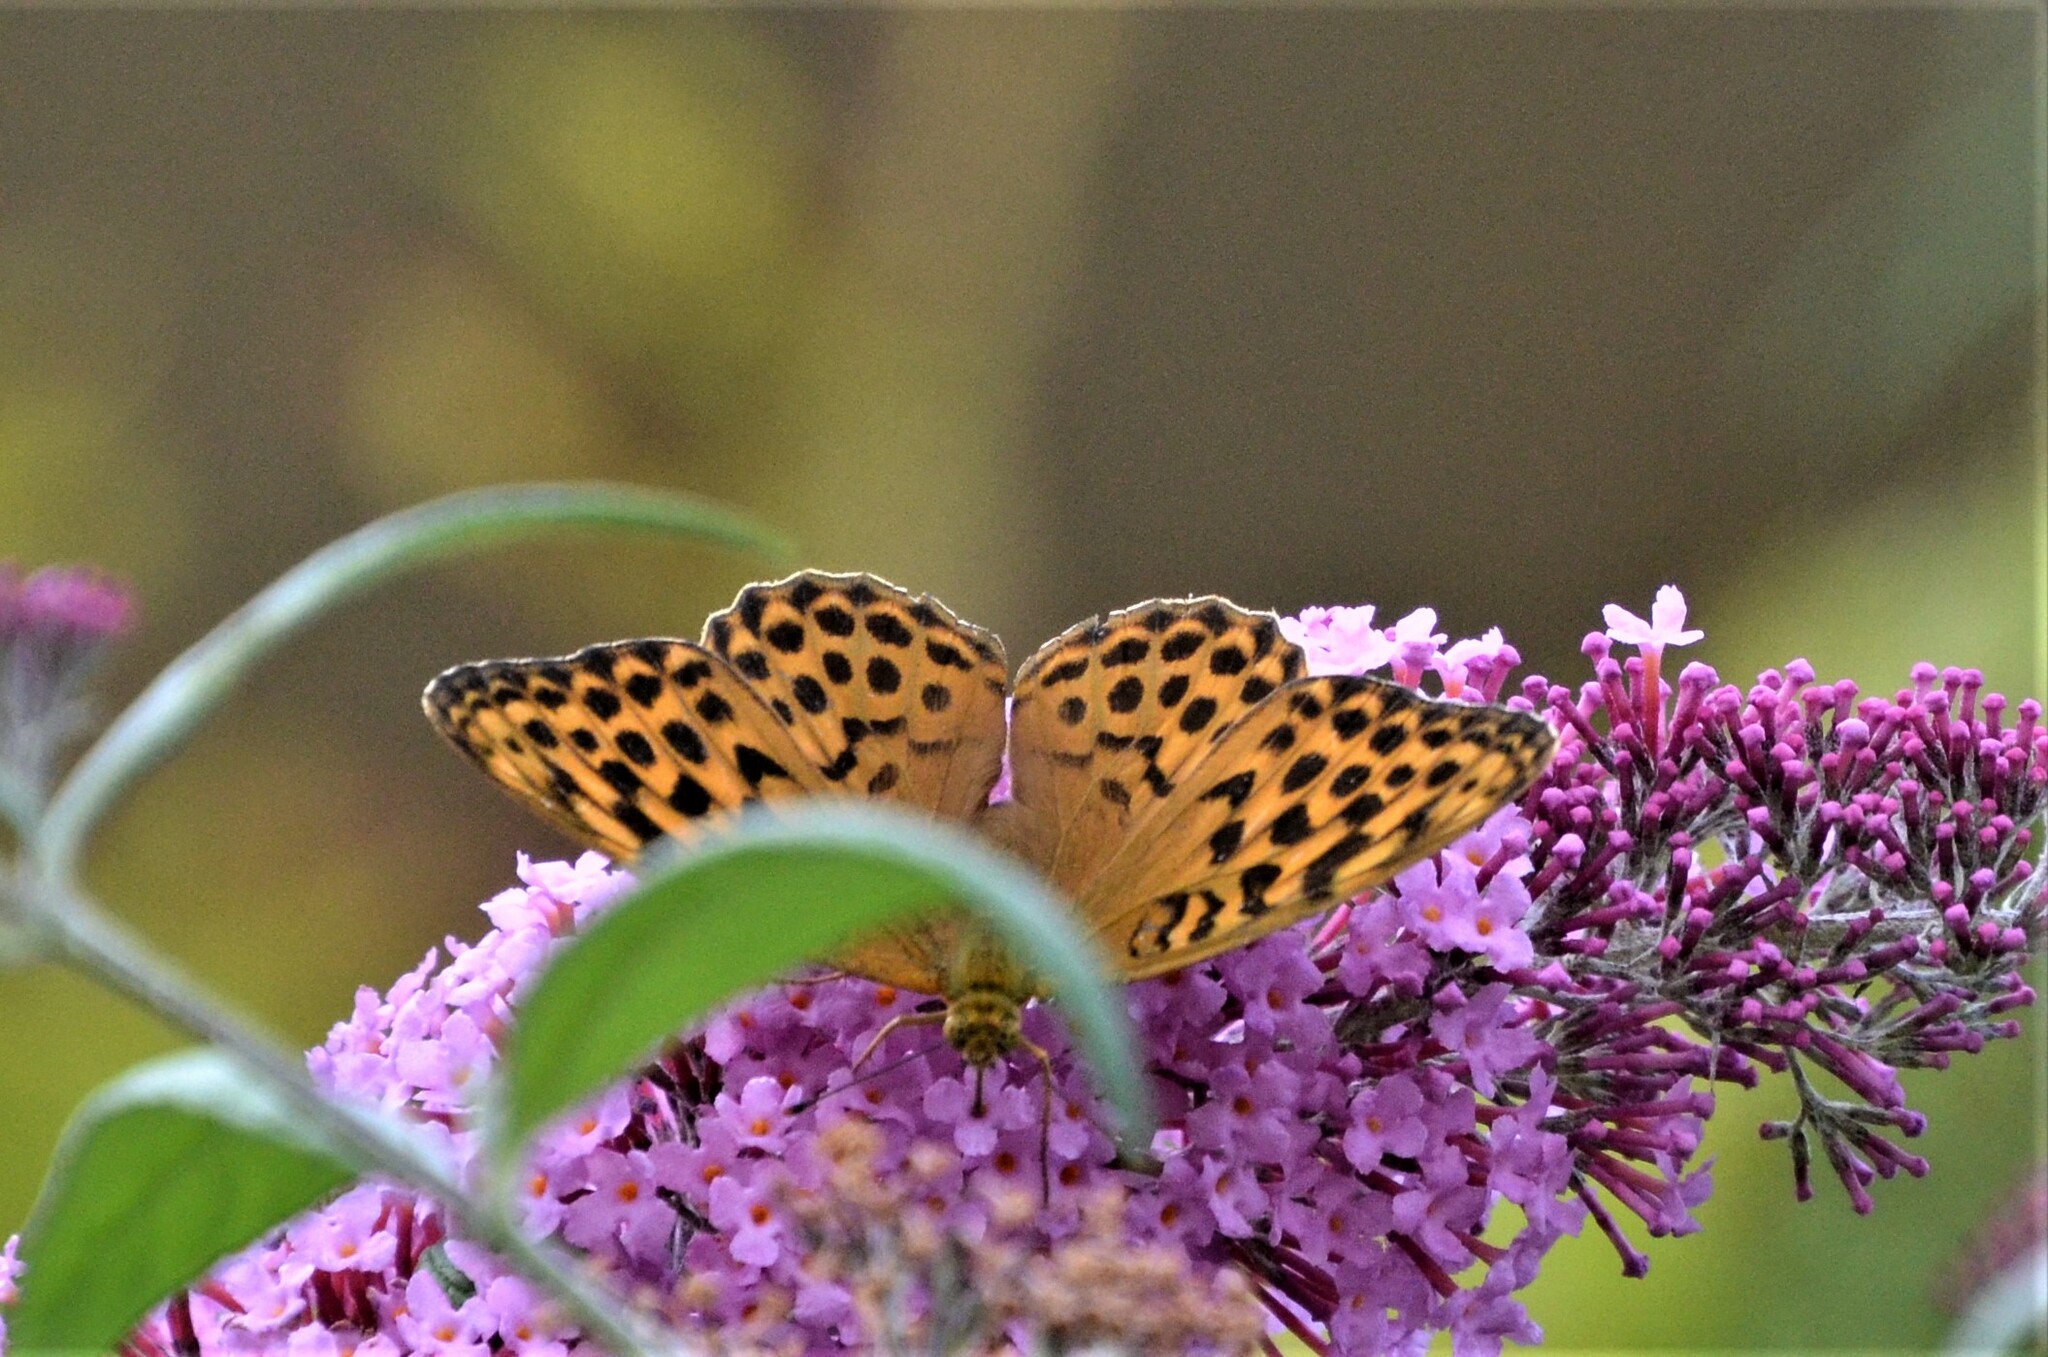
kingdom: Animalia
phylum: Arthropoda
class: Insecta
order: Lepidoptera
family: Nymphalidae
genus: Argynnis
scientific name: Argynnis paphia
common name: Silver-washed fritillary
